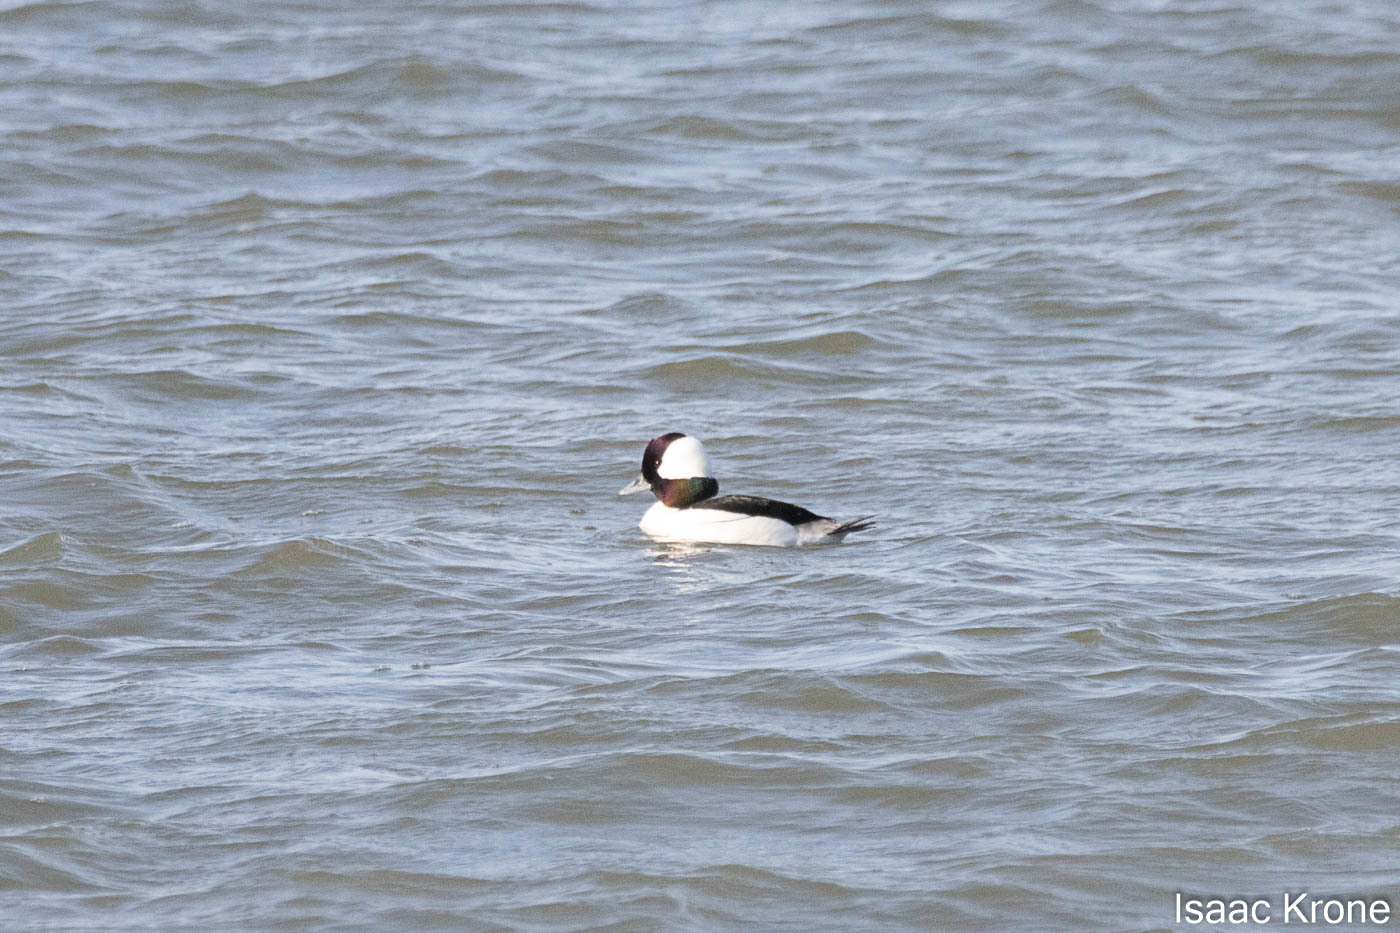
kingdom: Animalia
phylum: Chordata
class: Aves
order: Anseriformes
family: Anatidae
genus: Bucephala
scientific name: Bucephala albeola
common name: Bufflehead
